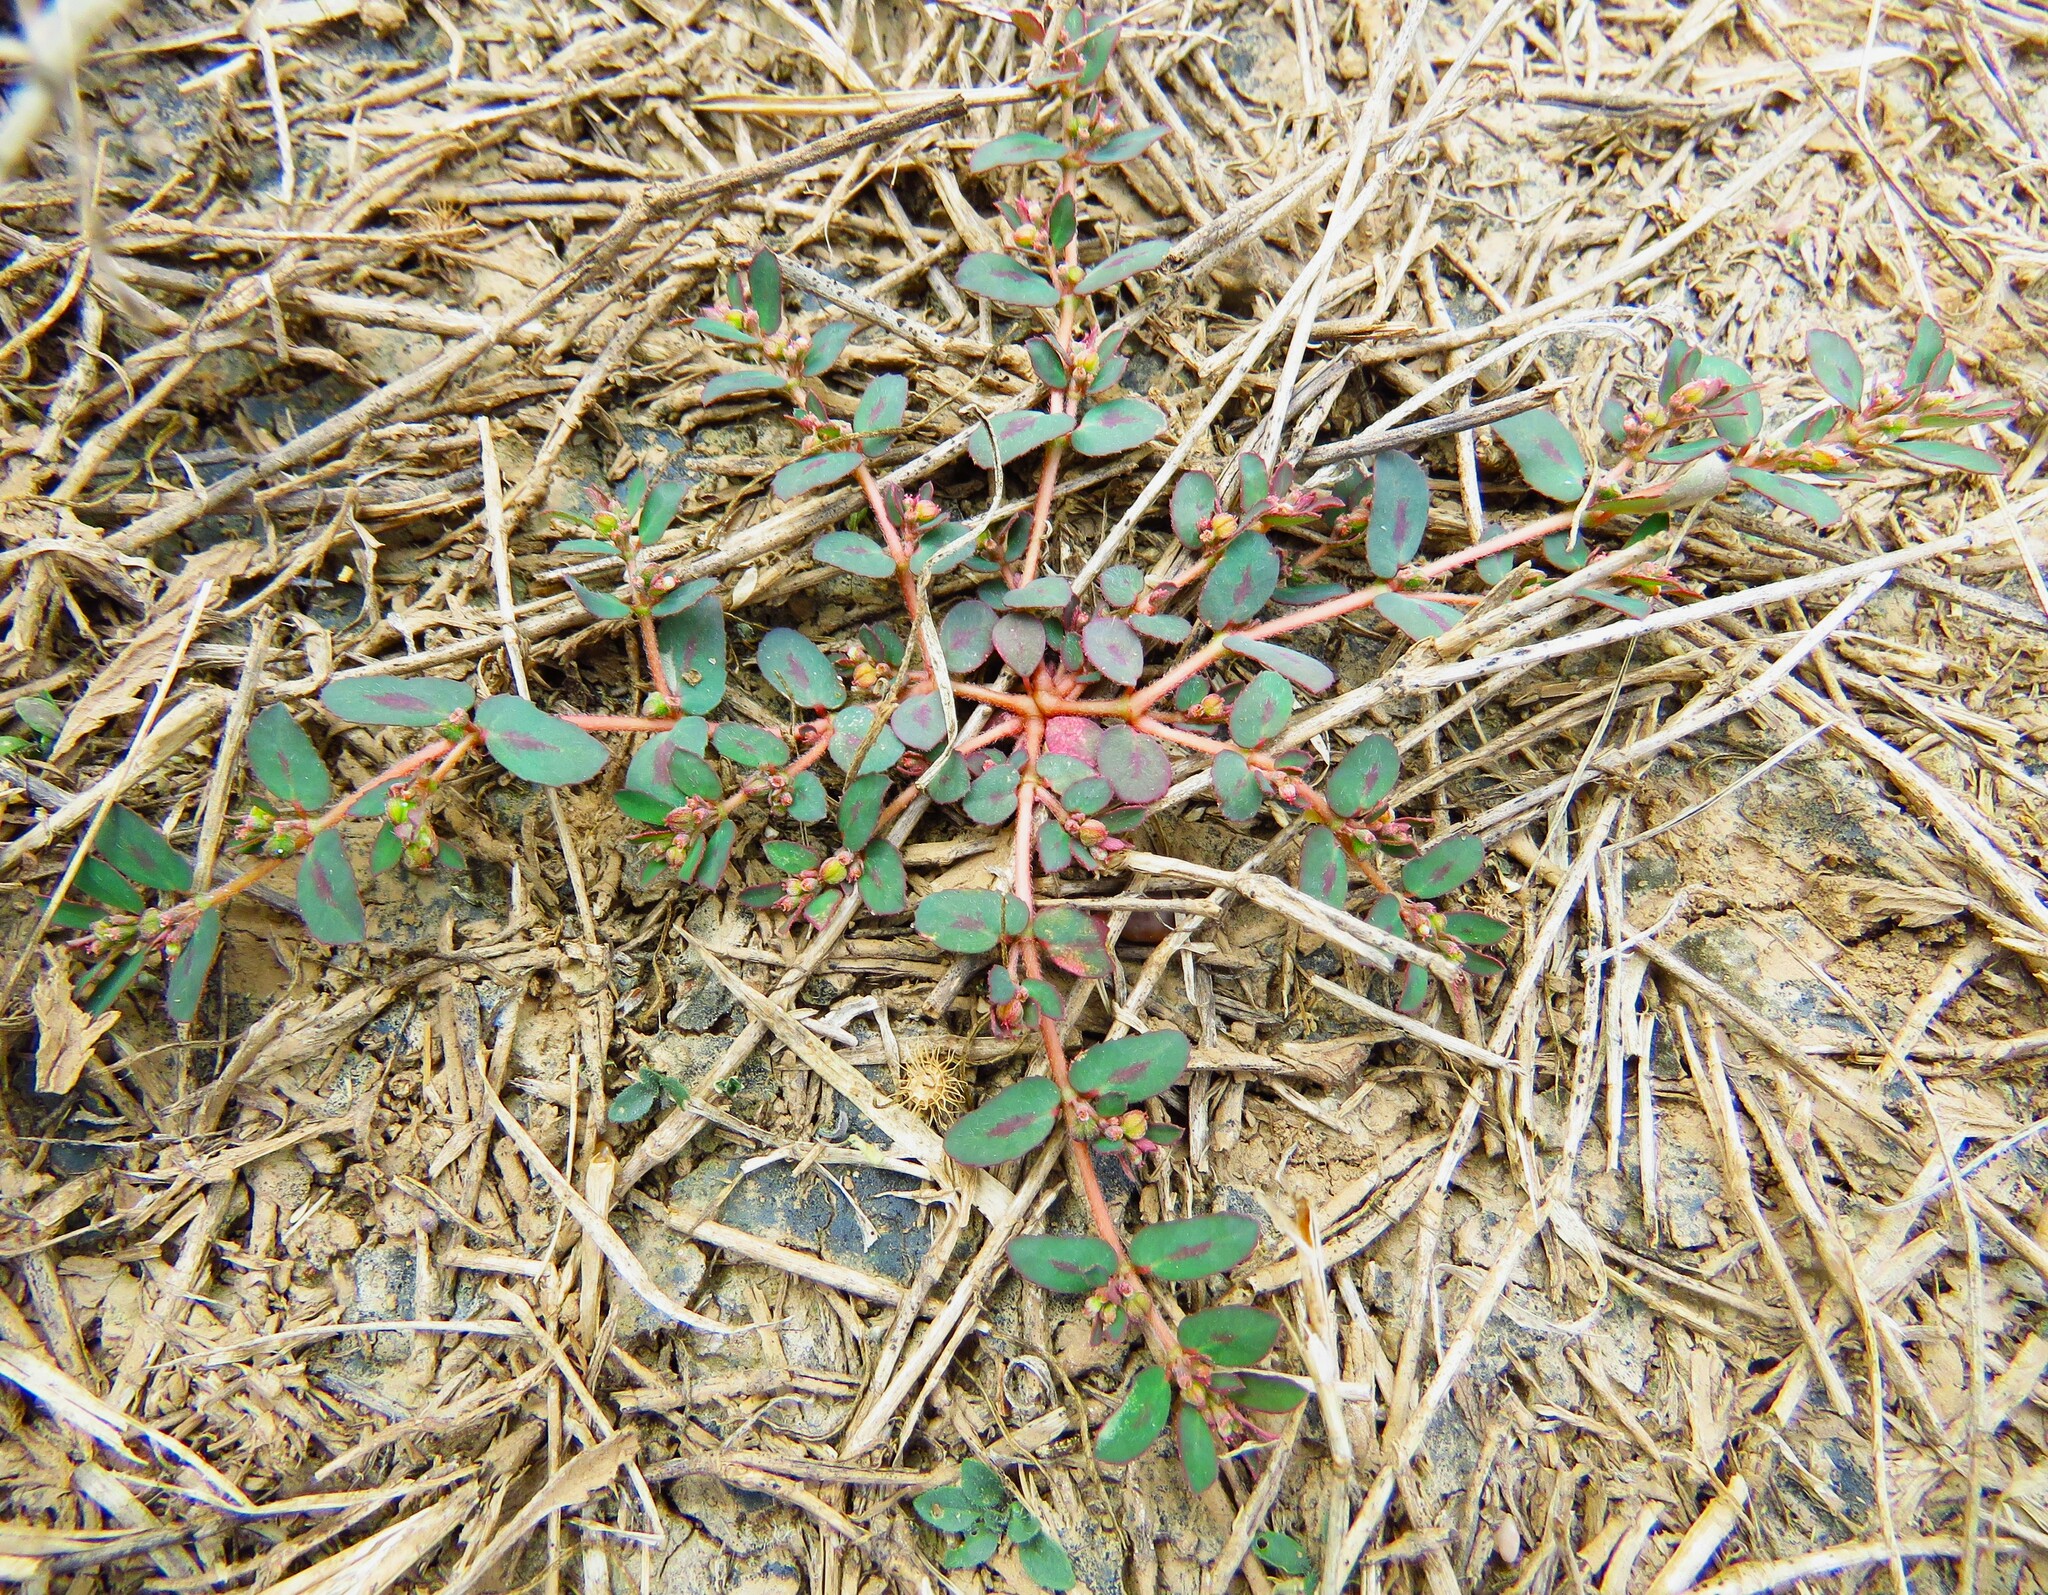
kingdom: Plantae
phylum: Tracheophyta
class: Magnoliopsida
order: Malpighiales
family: Euphorbiaceae
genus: Euphorbia
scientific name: Euphorbia maculata
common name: Spotted spurge
